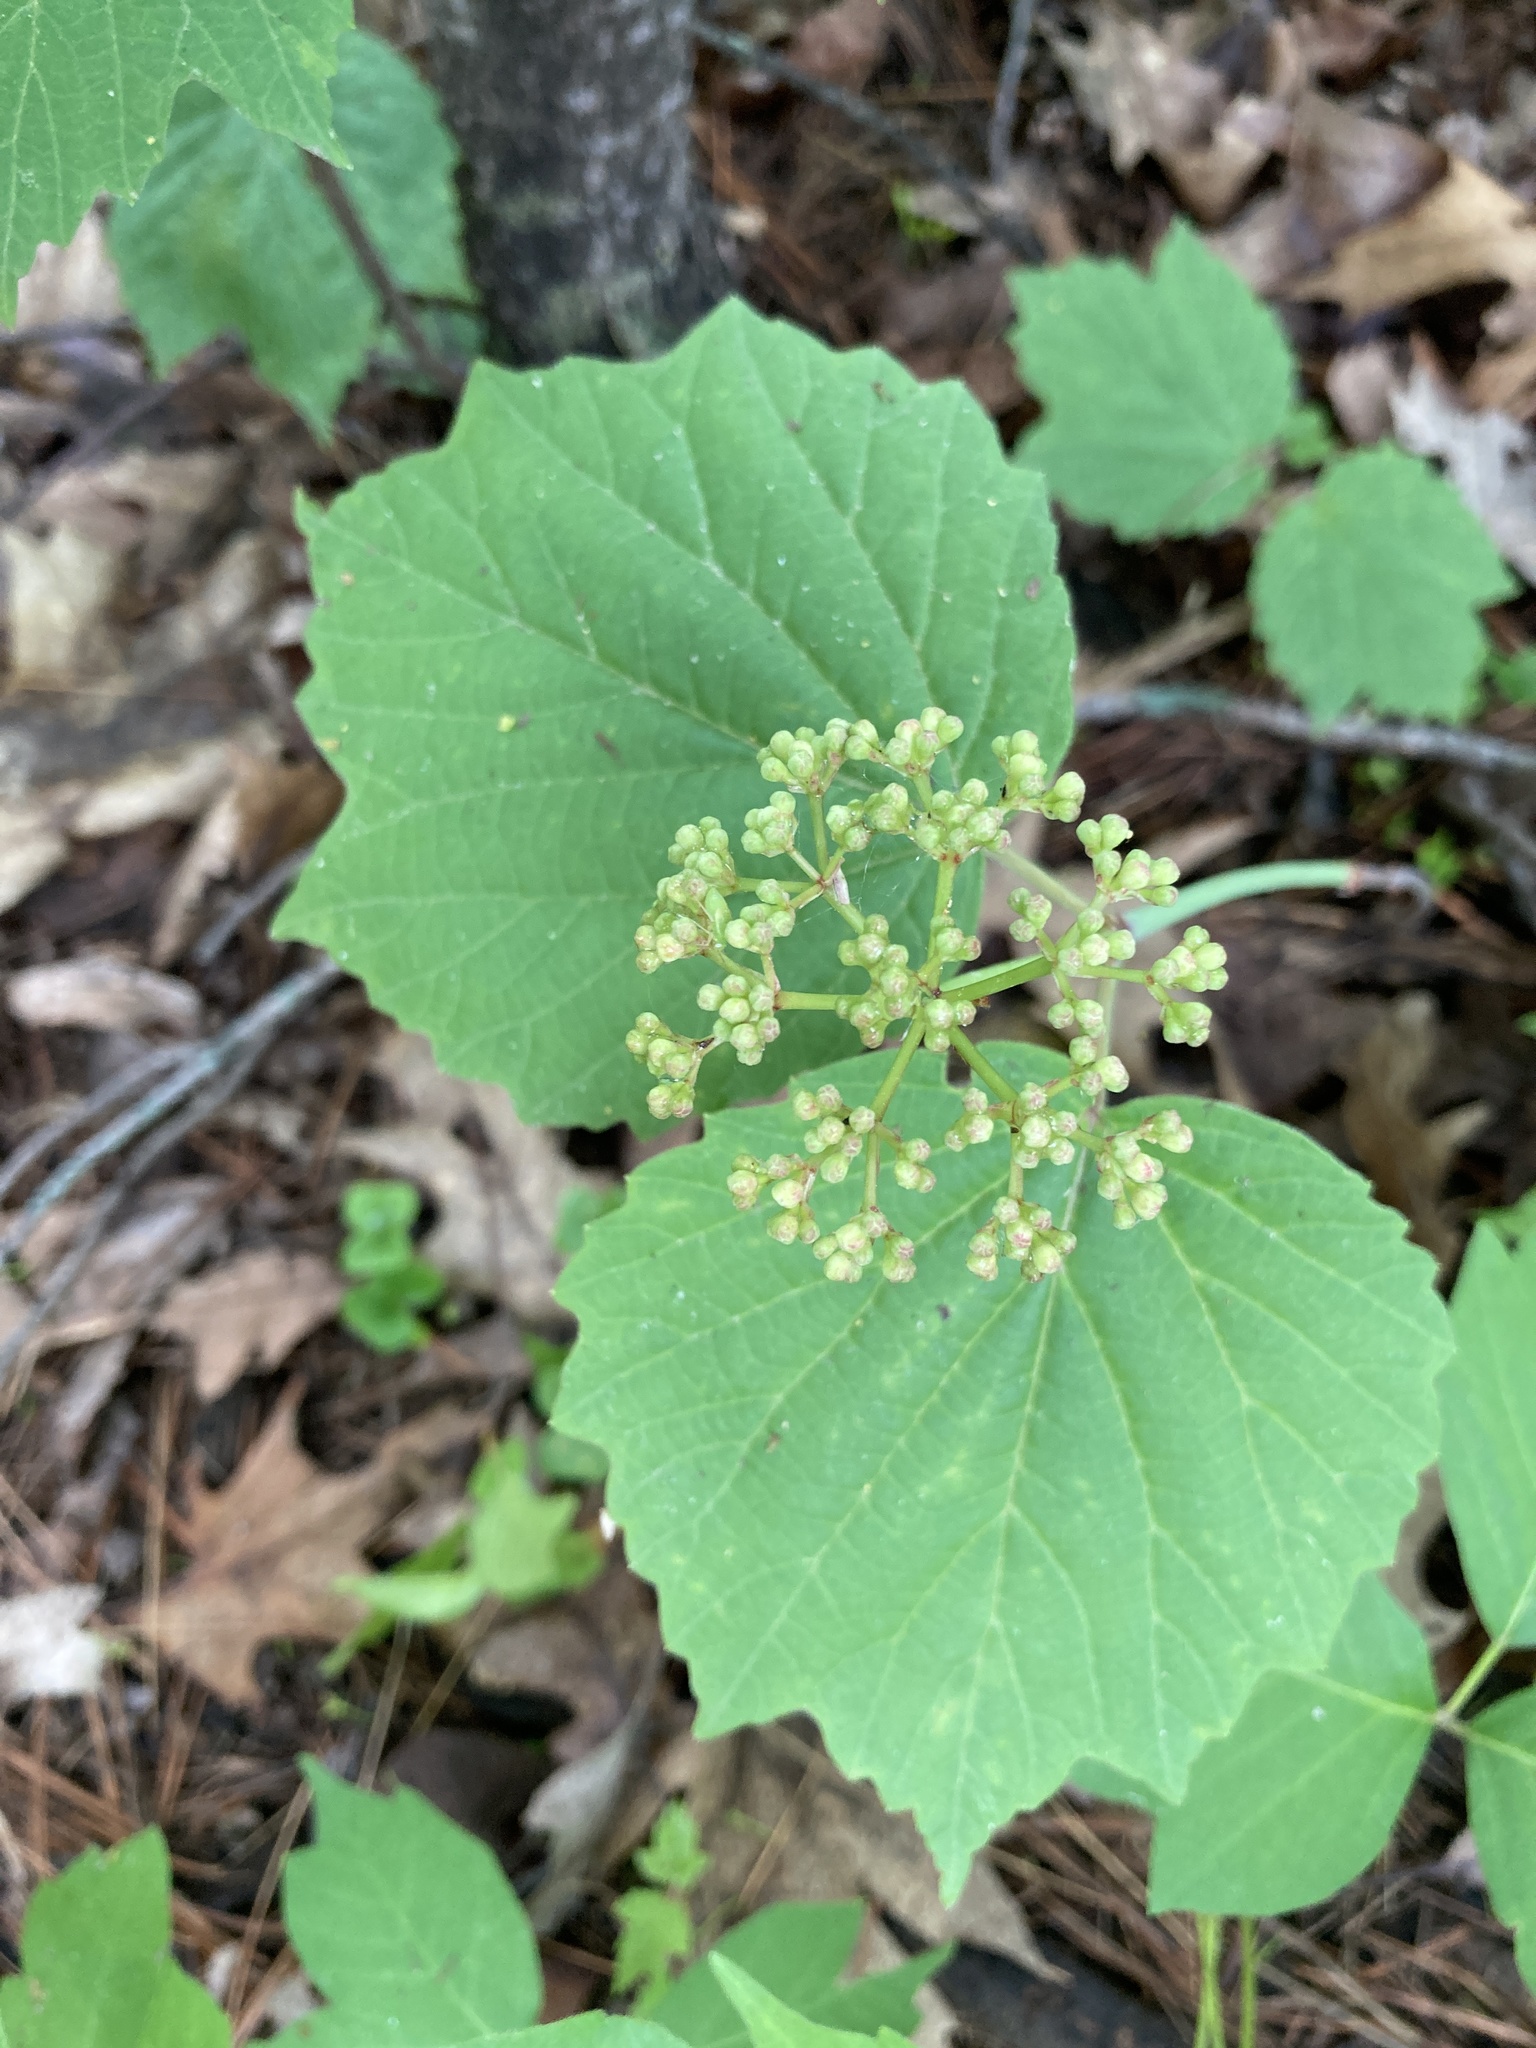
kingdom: Plantae
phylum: Tracheophyta
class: Magnoliopsida
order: Dipsacales
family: Viburnaceae
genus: Viburnum
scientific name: Viburnum acerifolium
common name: Dockmackie
